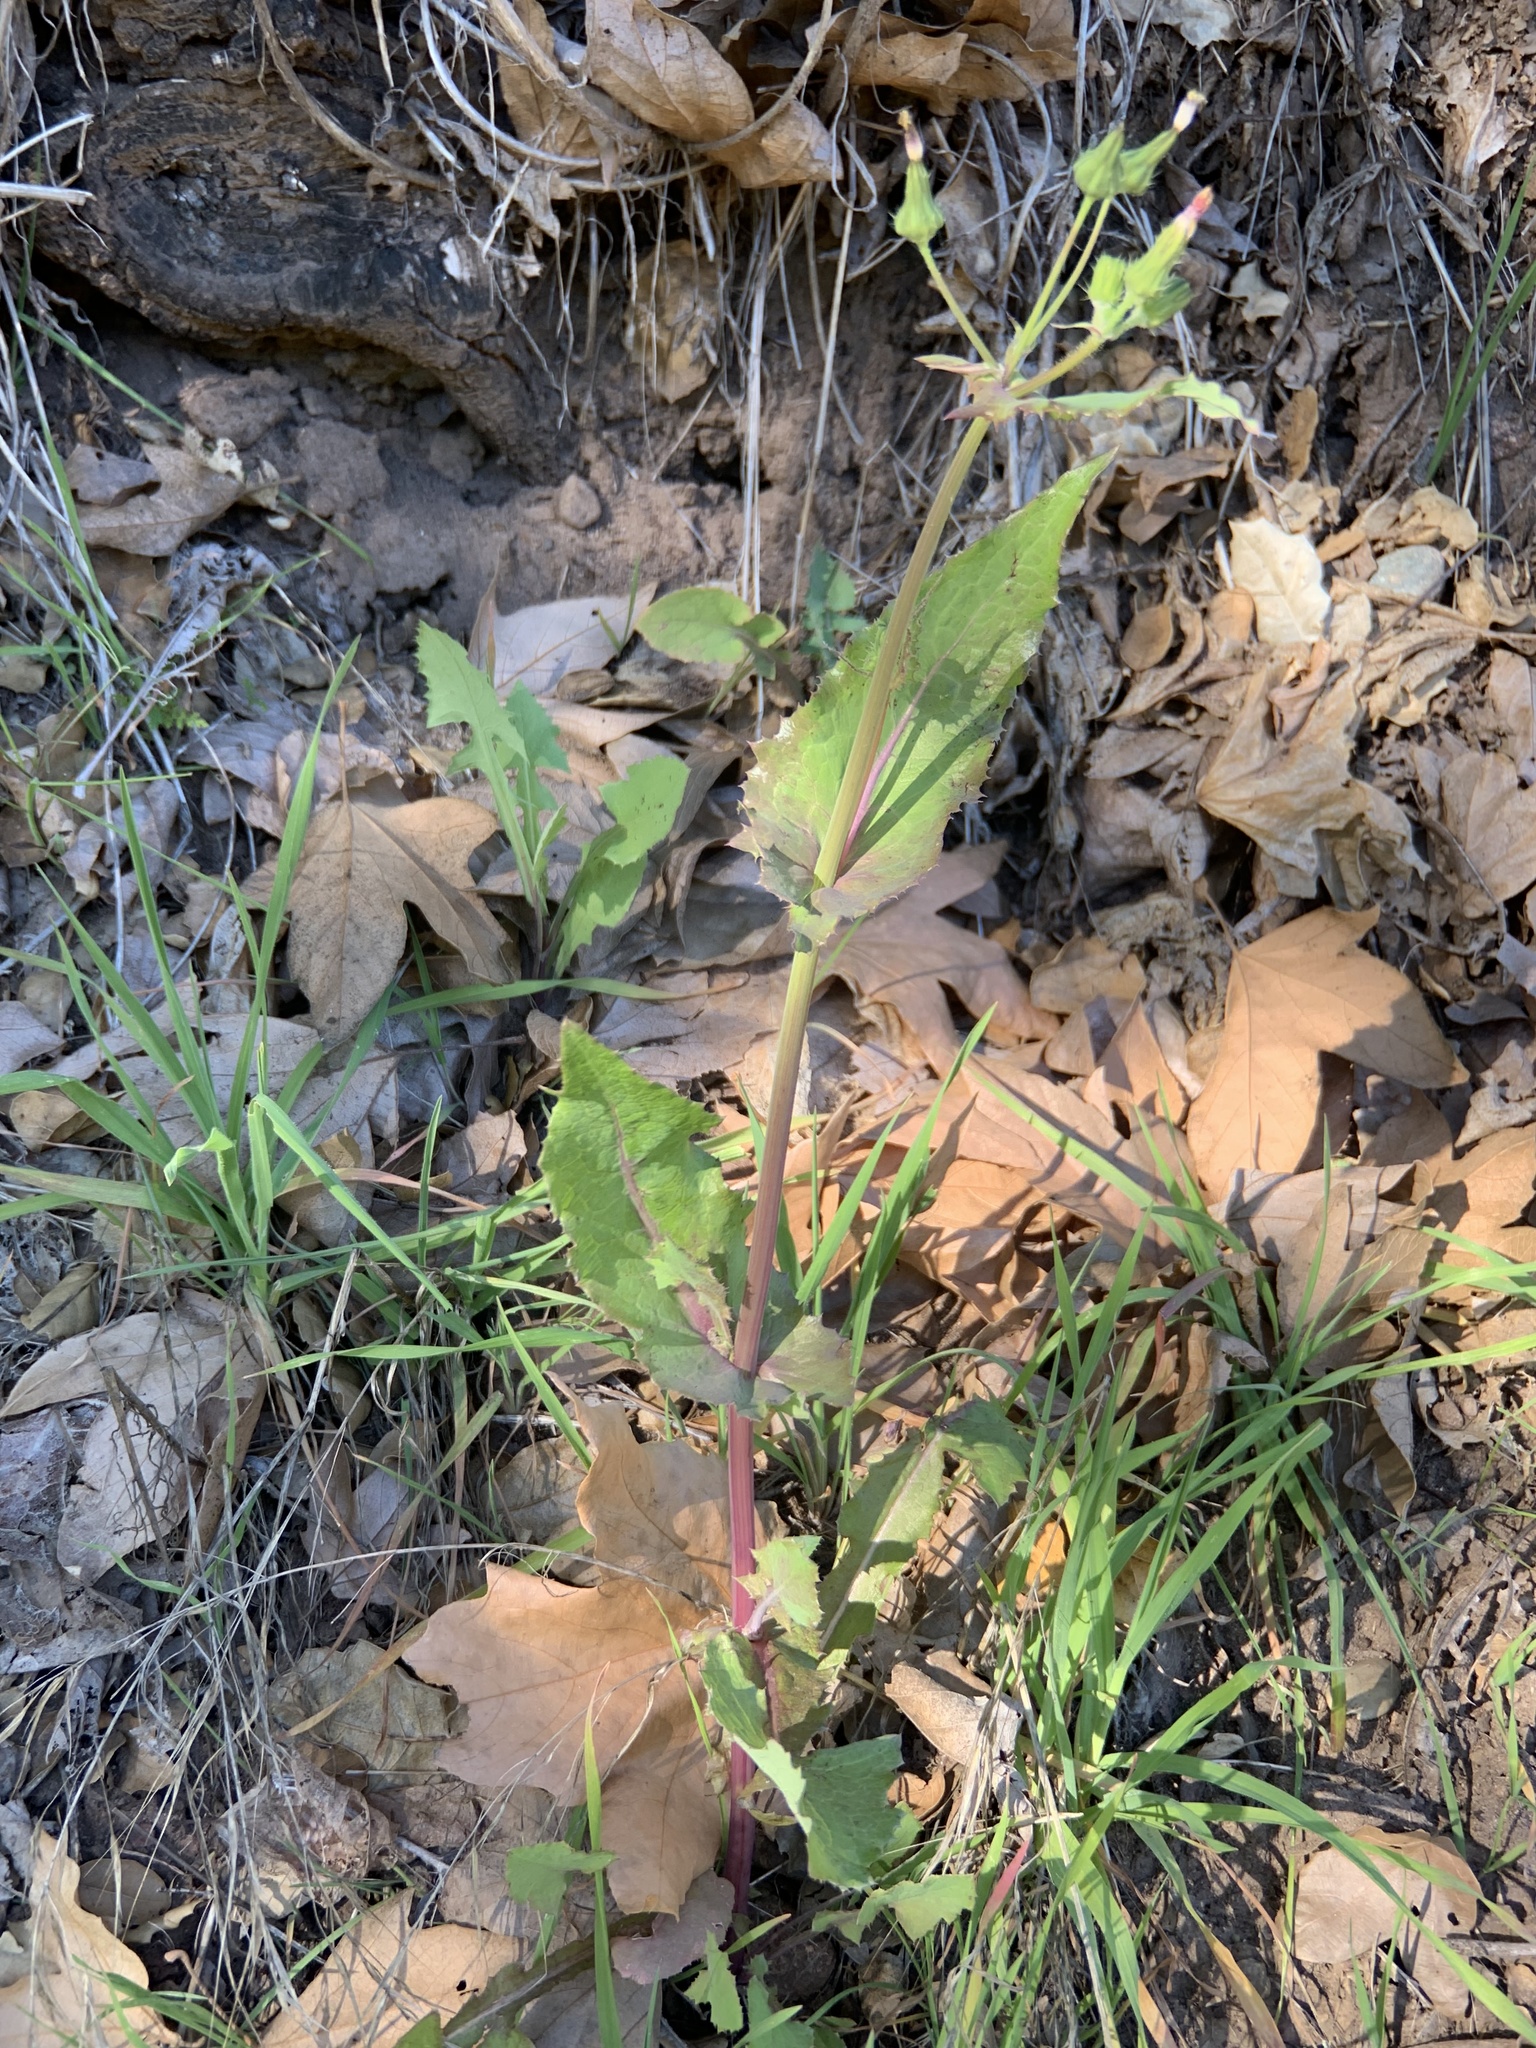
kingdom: Plantae
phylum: Tracheophyta
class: Magnoliopsida
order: Asterales
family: Asteraceae
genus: Sonchus
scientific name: Sonchus oleraceus
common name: Common sowthistle
